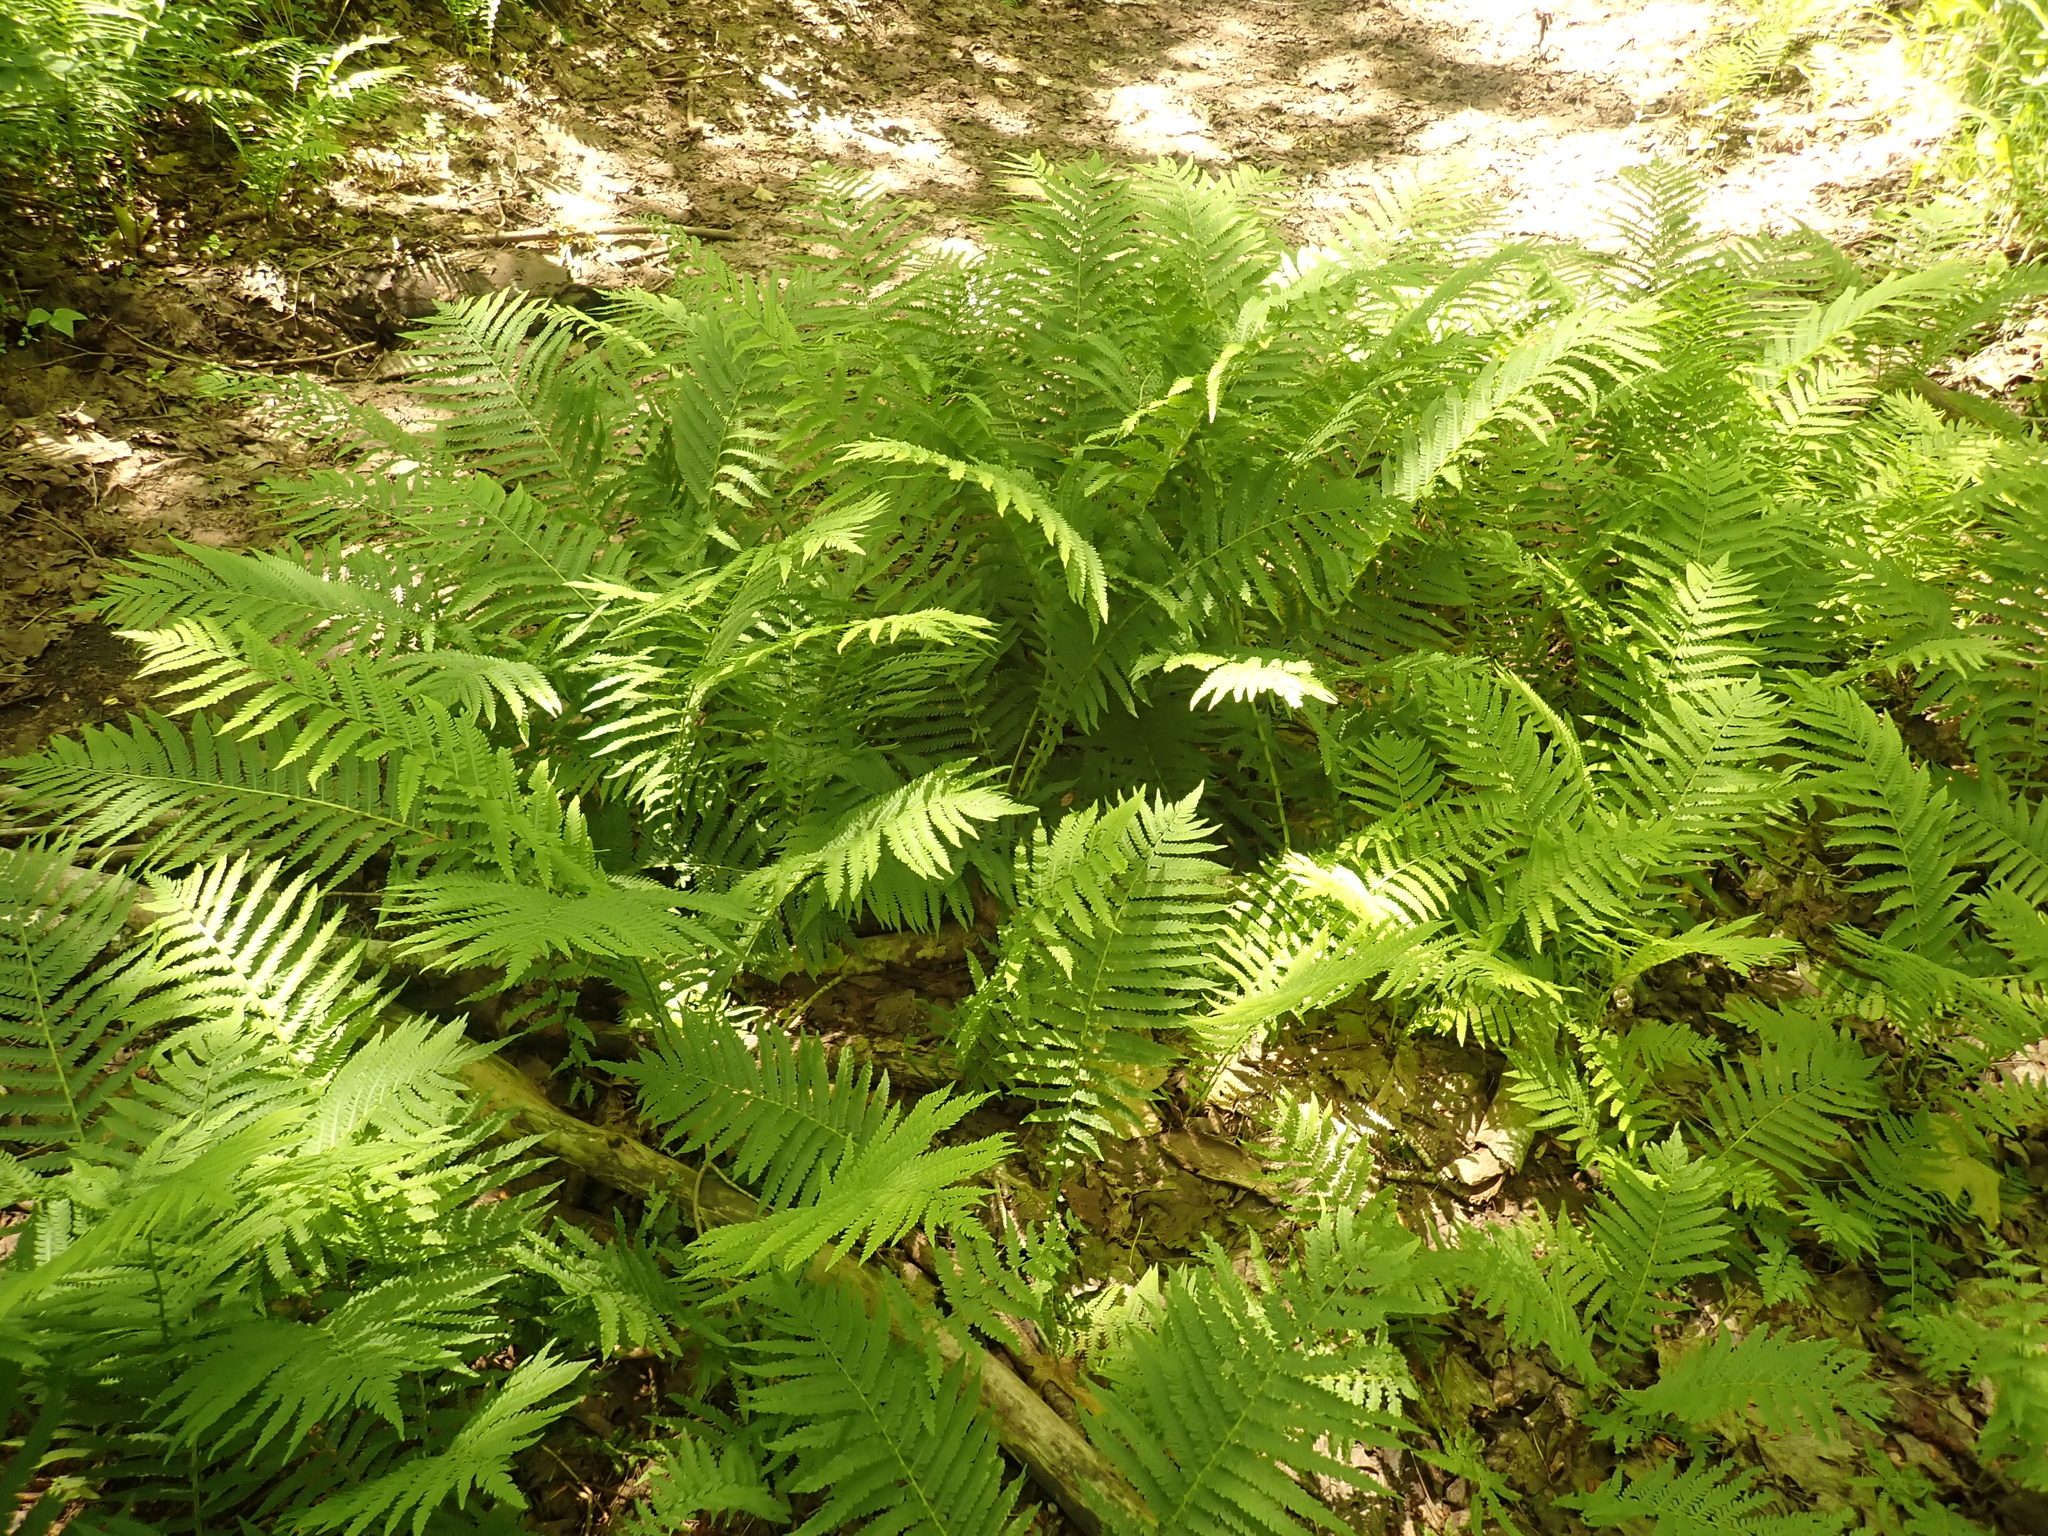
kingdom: Plantae
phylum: Tracheophyta
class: Polypodiopsida
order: Polypodiales
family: Onocleaceae
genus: Matteuccia
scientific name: Matteuccia struthiopteris
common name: Ostrich fern
